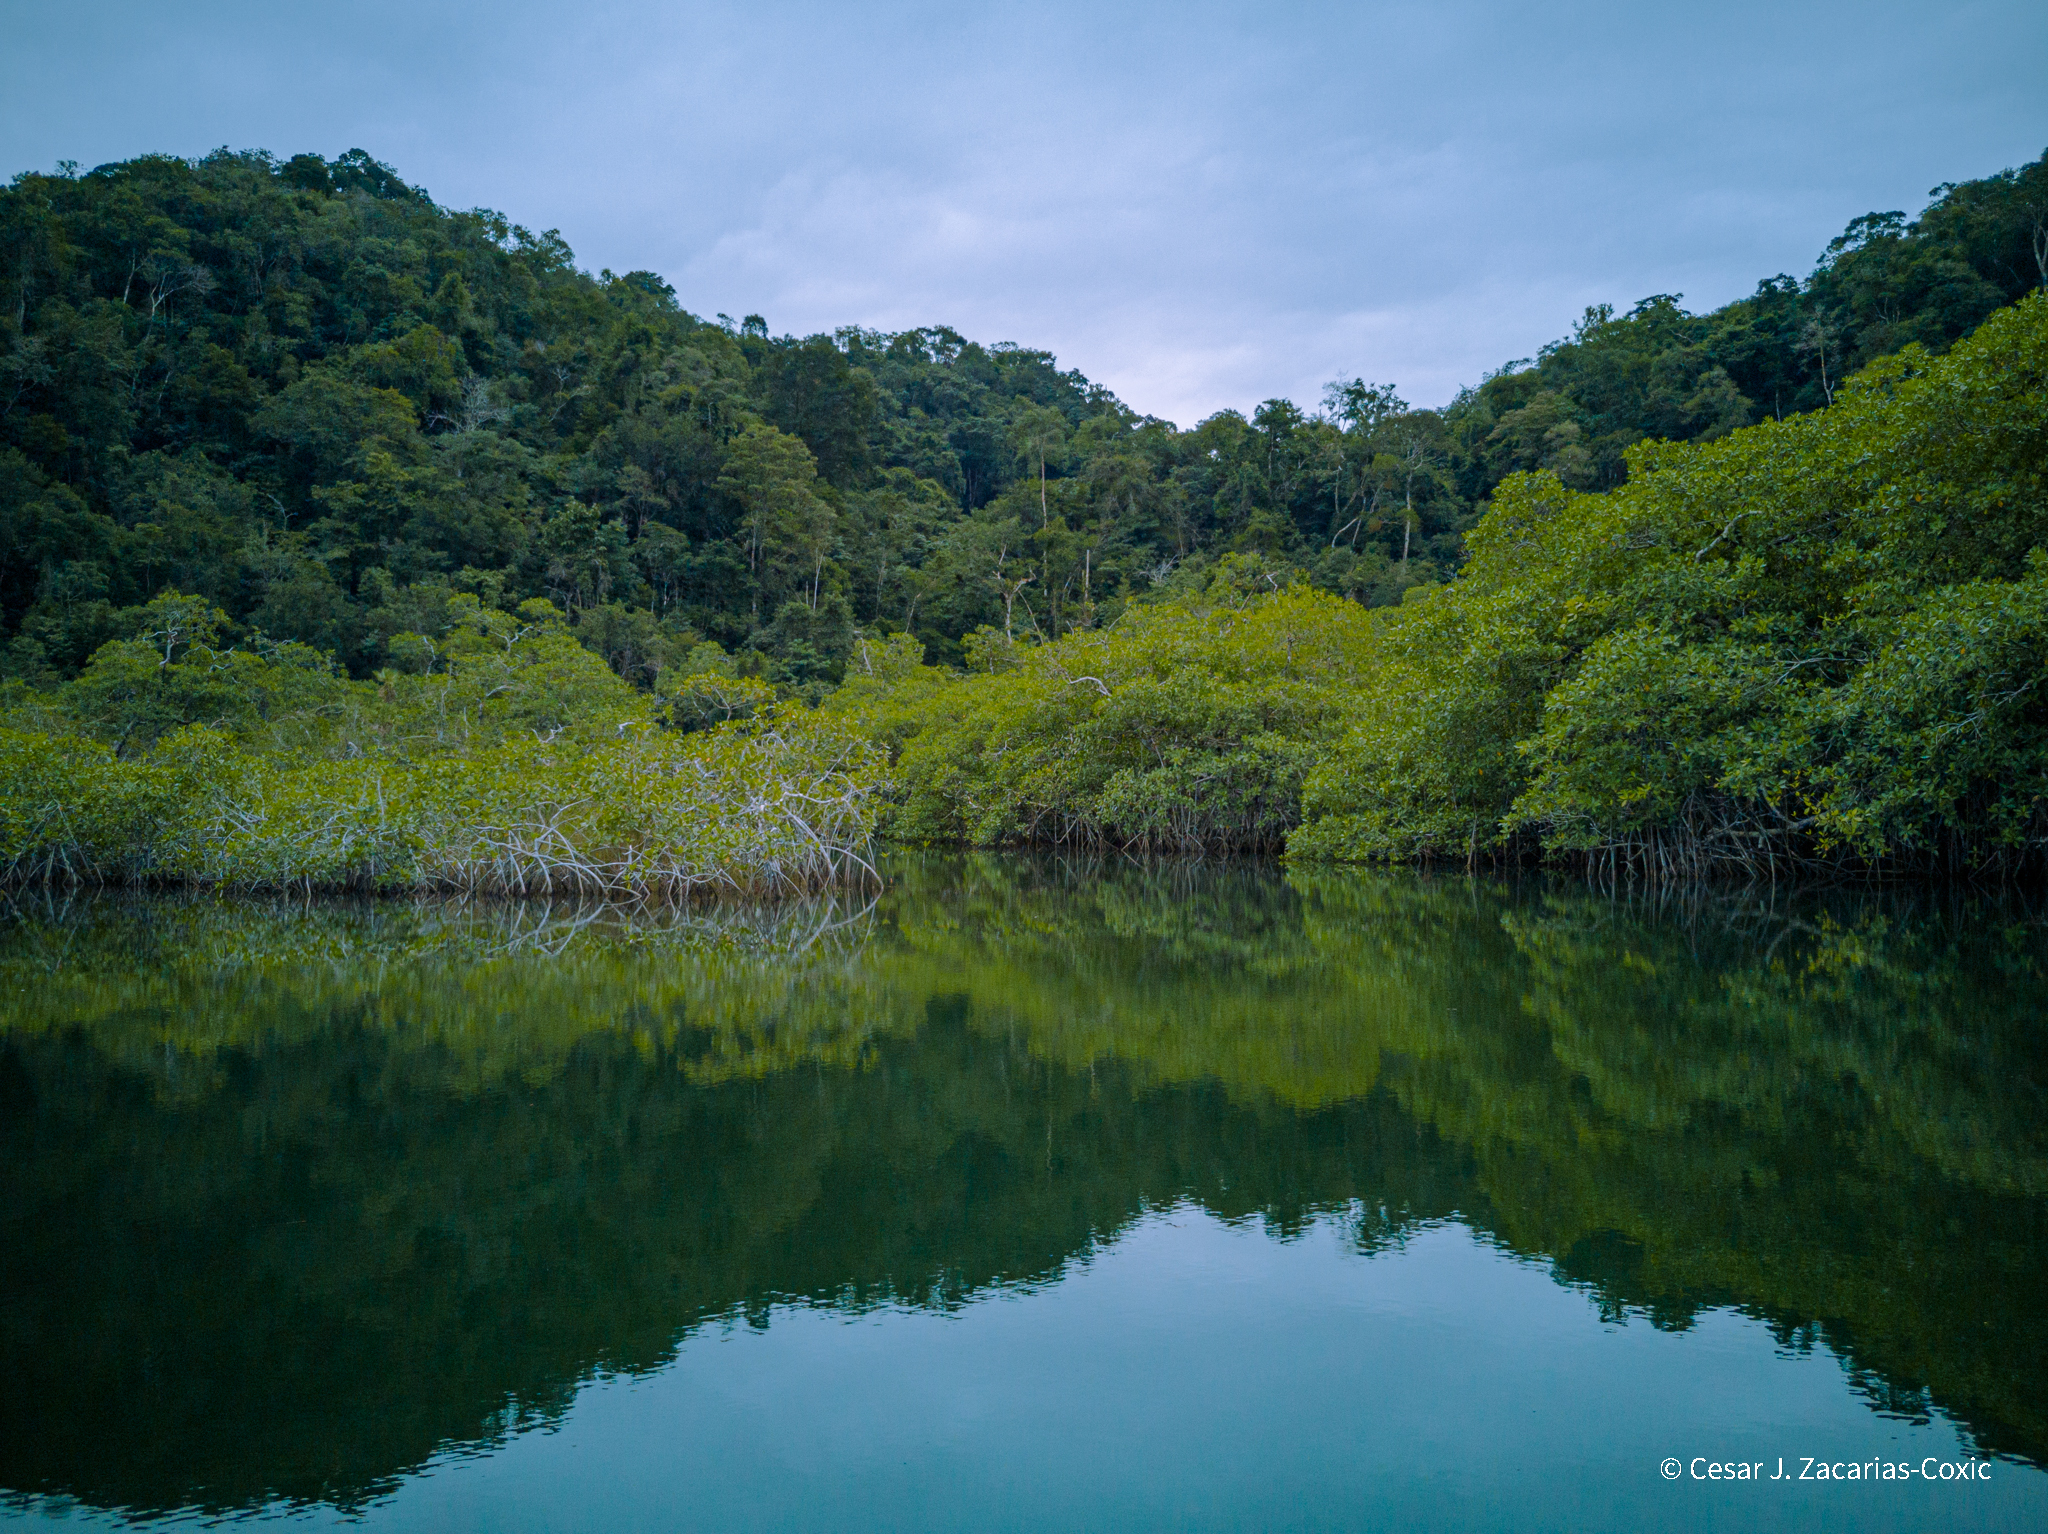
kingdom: Plantae
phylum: Tracheophyta
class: Magnoliopsida
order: Malpighiales
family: Rhizophoraceae
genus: Rhizophora
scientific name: Rhizophora mangle
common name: Red mangrove
